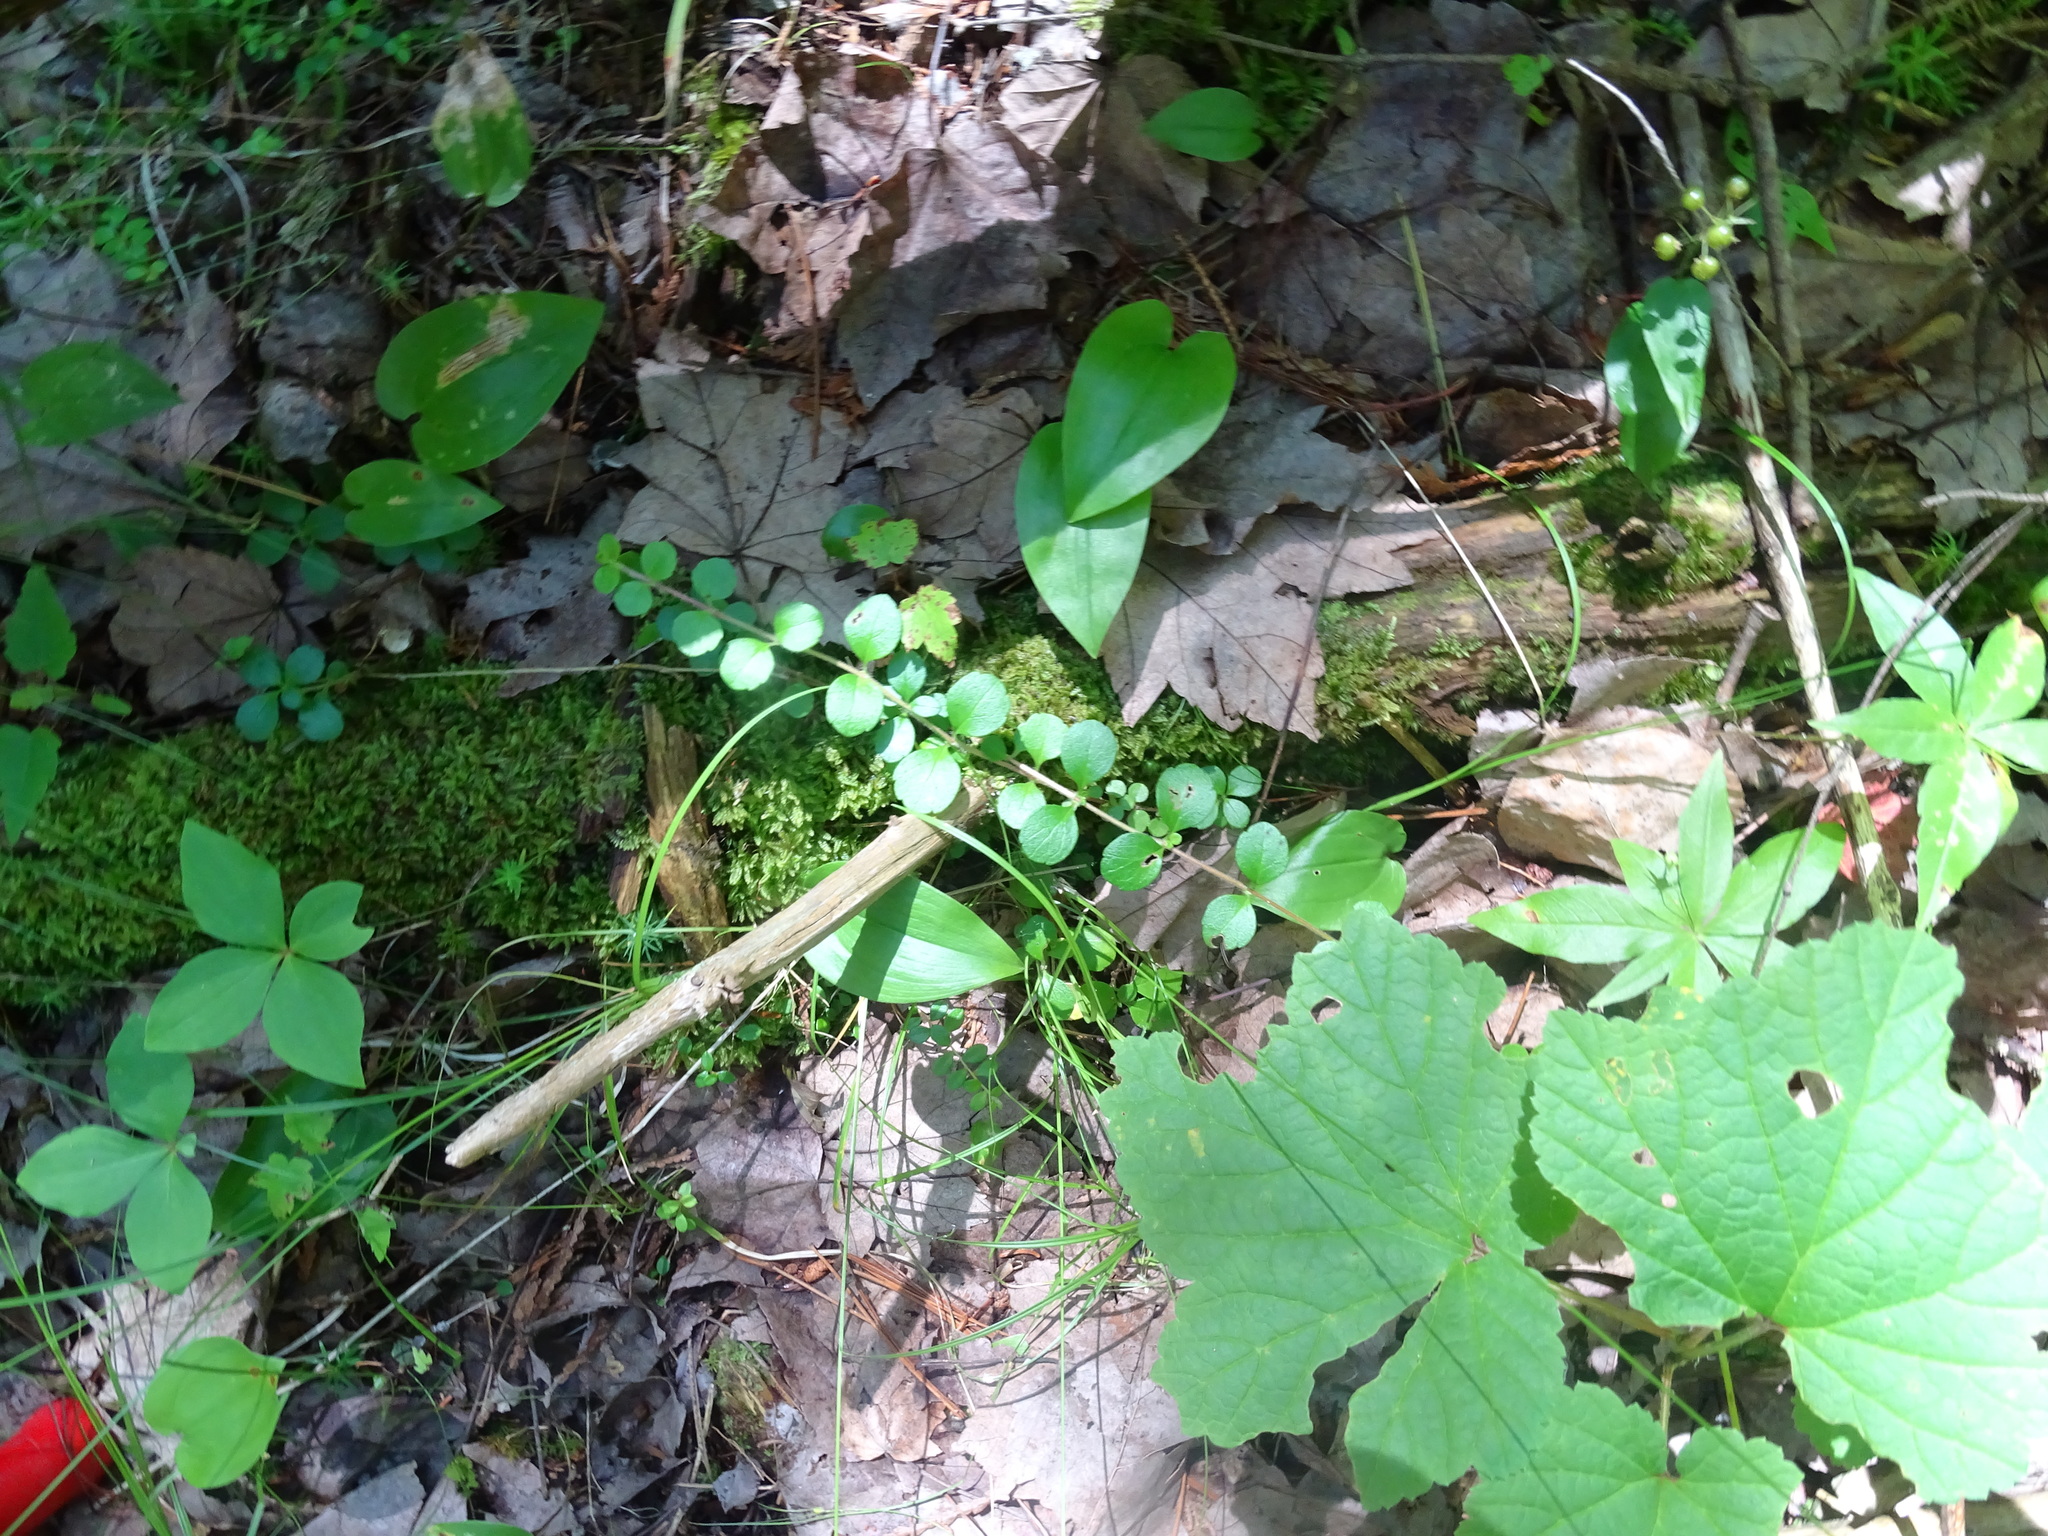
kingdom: Plantae
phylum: Tracheophyta
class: Magnoliopsida
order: Dipsacales
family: Caprifoliaceae
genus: Linnaea
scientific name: Linnaea borealis
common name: Twinflower
